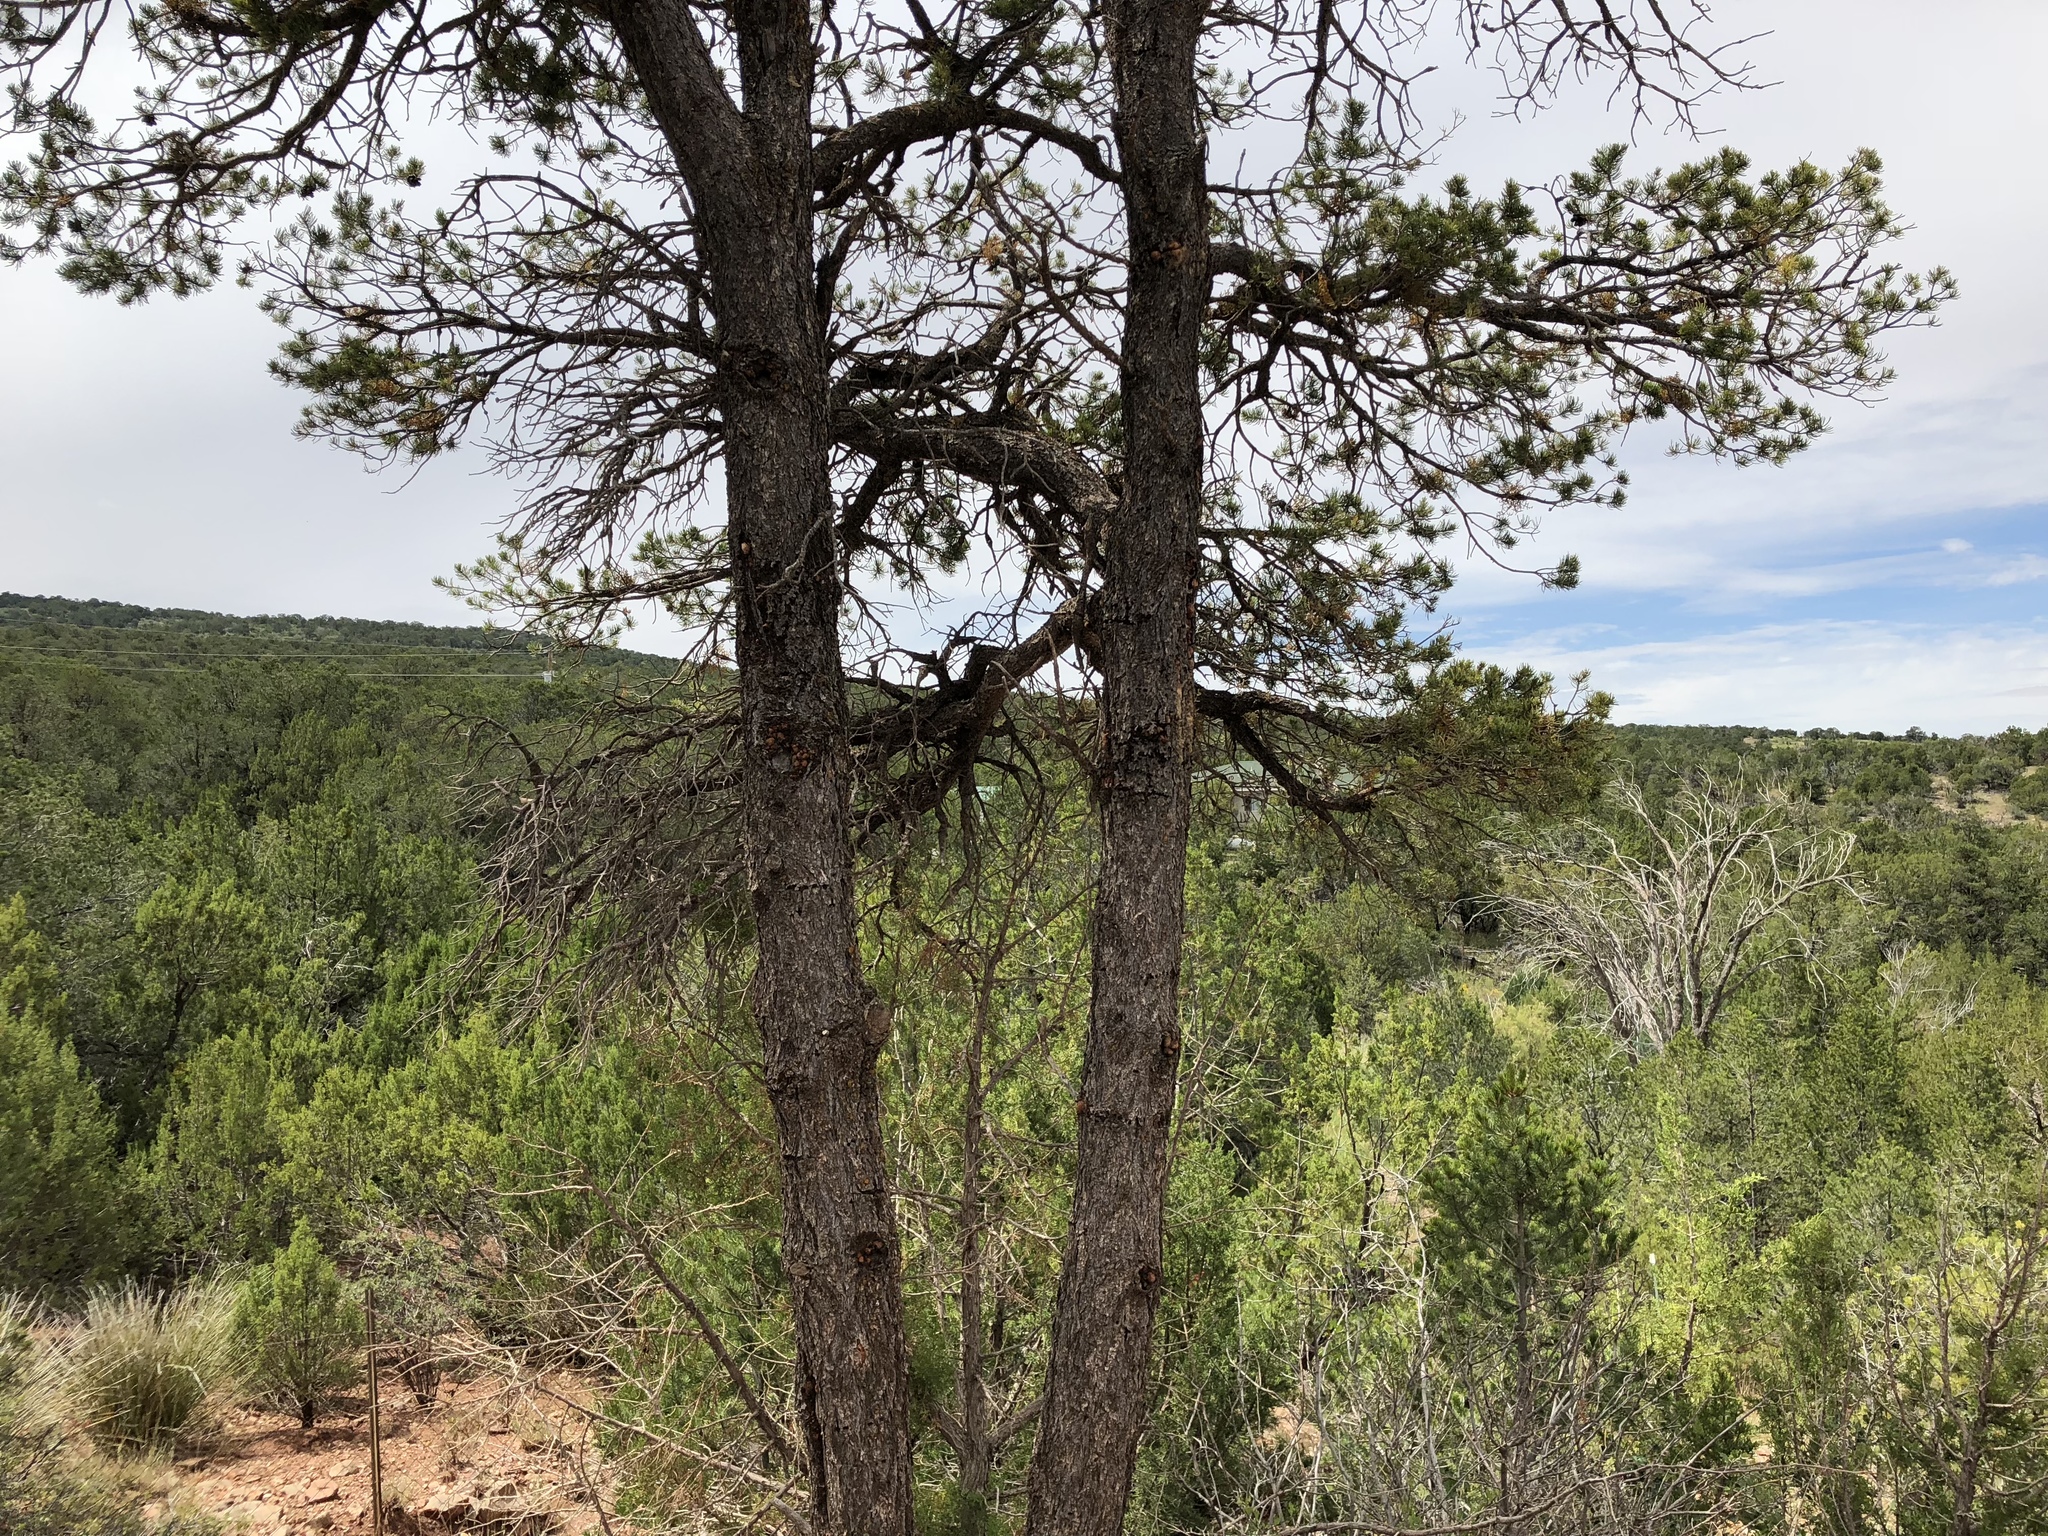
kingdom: Plantae
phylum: Tracheophyta
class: Pinopsida
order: Pinales
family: Pinaceae
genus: Pinus
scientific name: Pinus edulis
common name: Colorado pinyon
